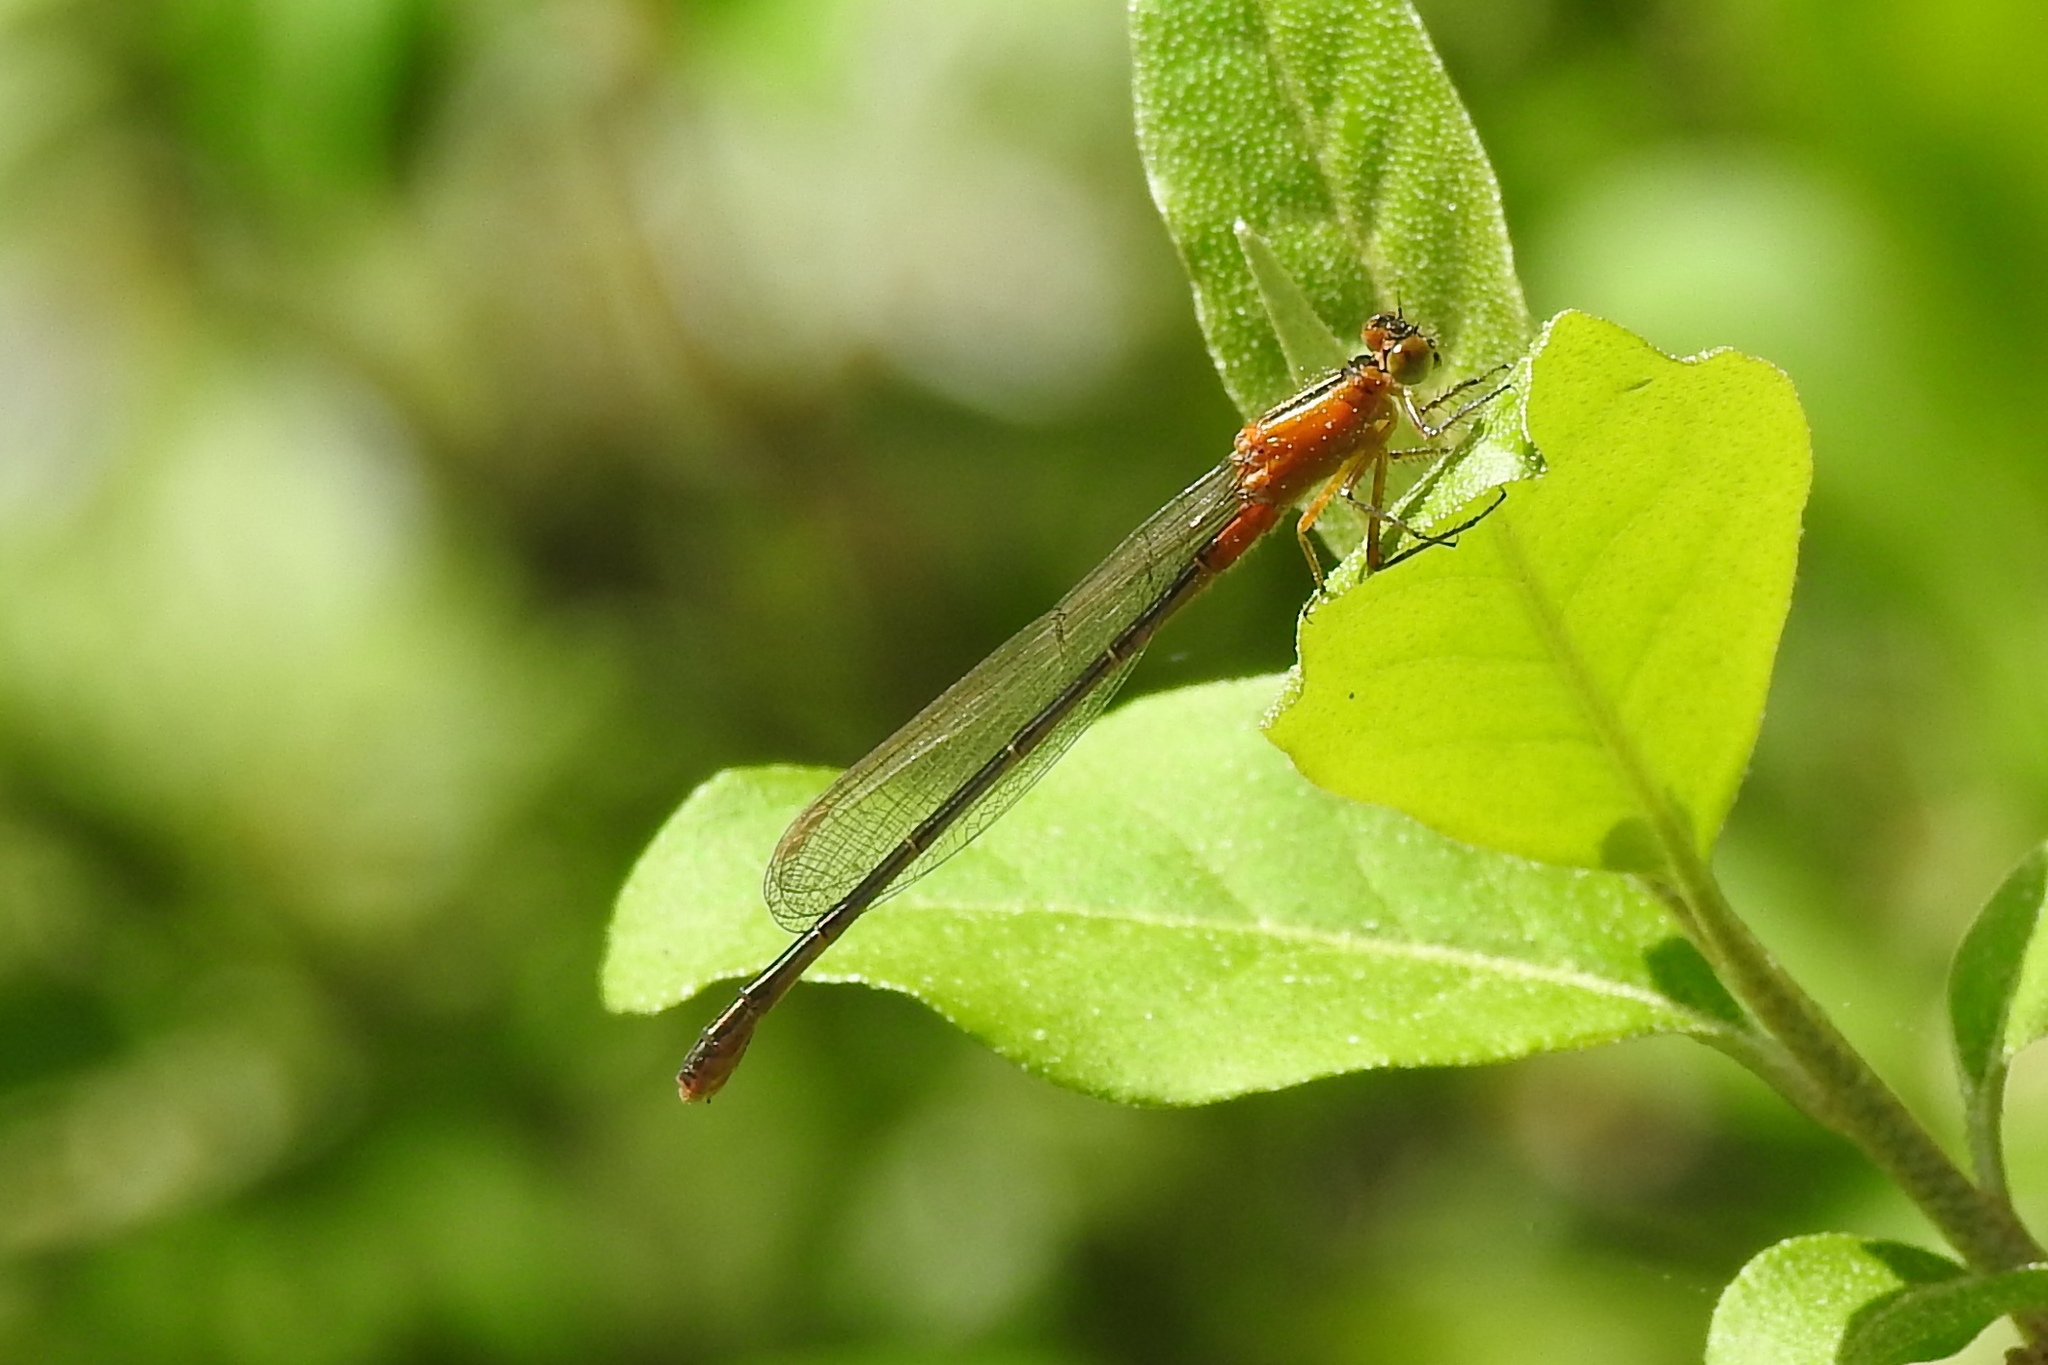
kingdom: Animalia
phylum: Arthropoda
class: Insecta
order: Odonata
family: Coenagrionidae
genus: Ischnura
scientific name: Ischnura ramburii
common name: Rambur's forktail
